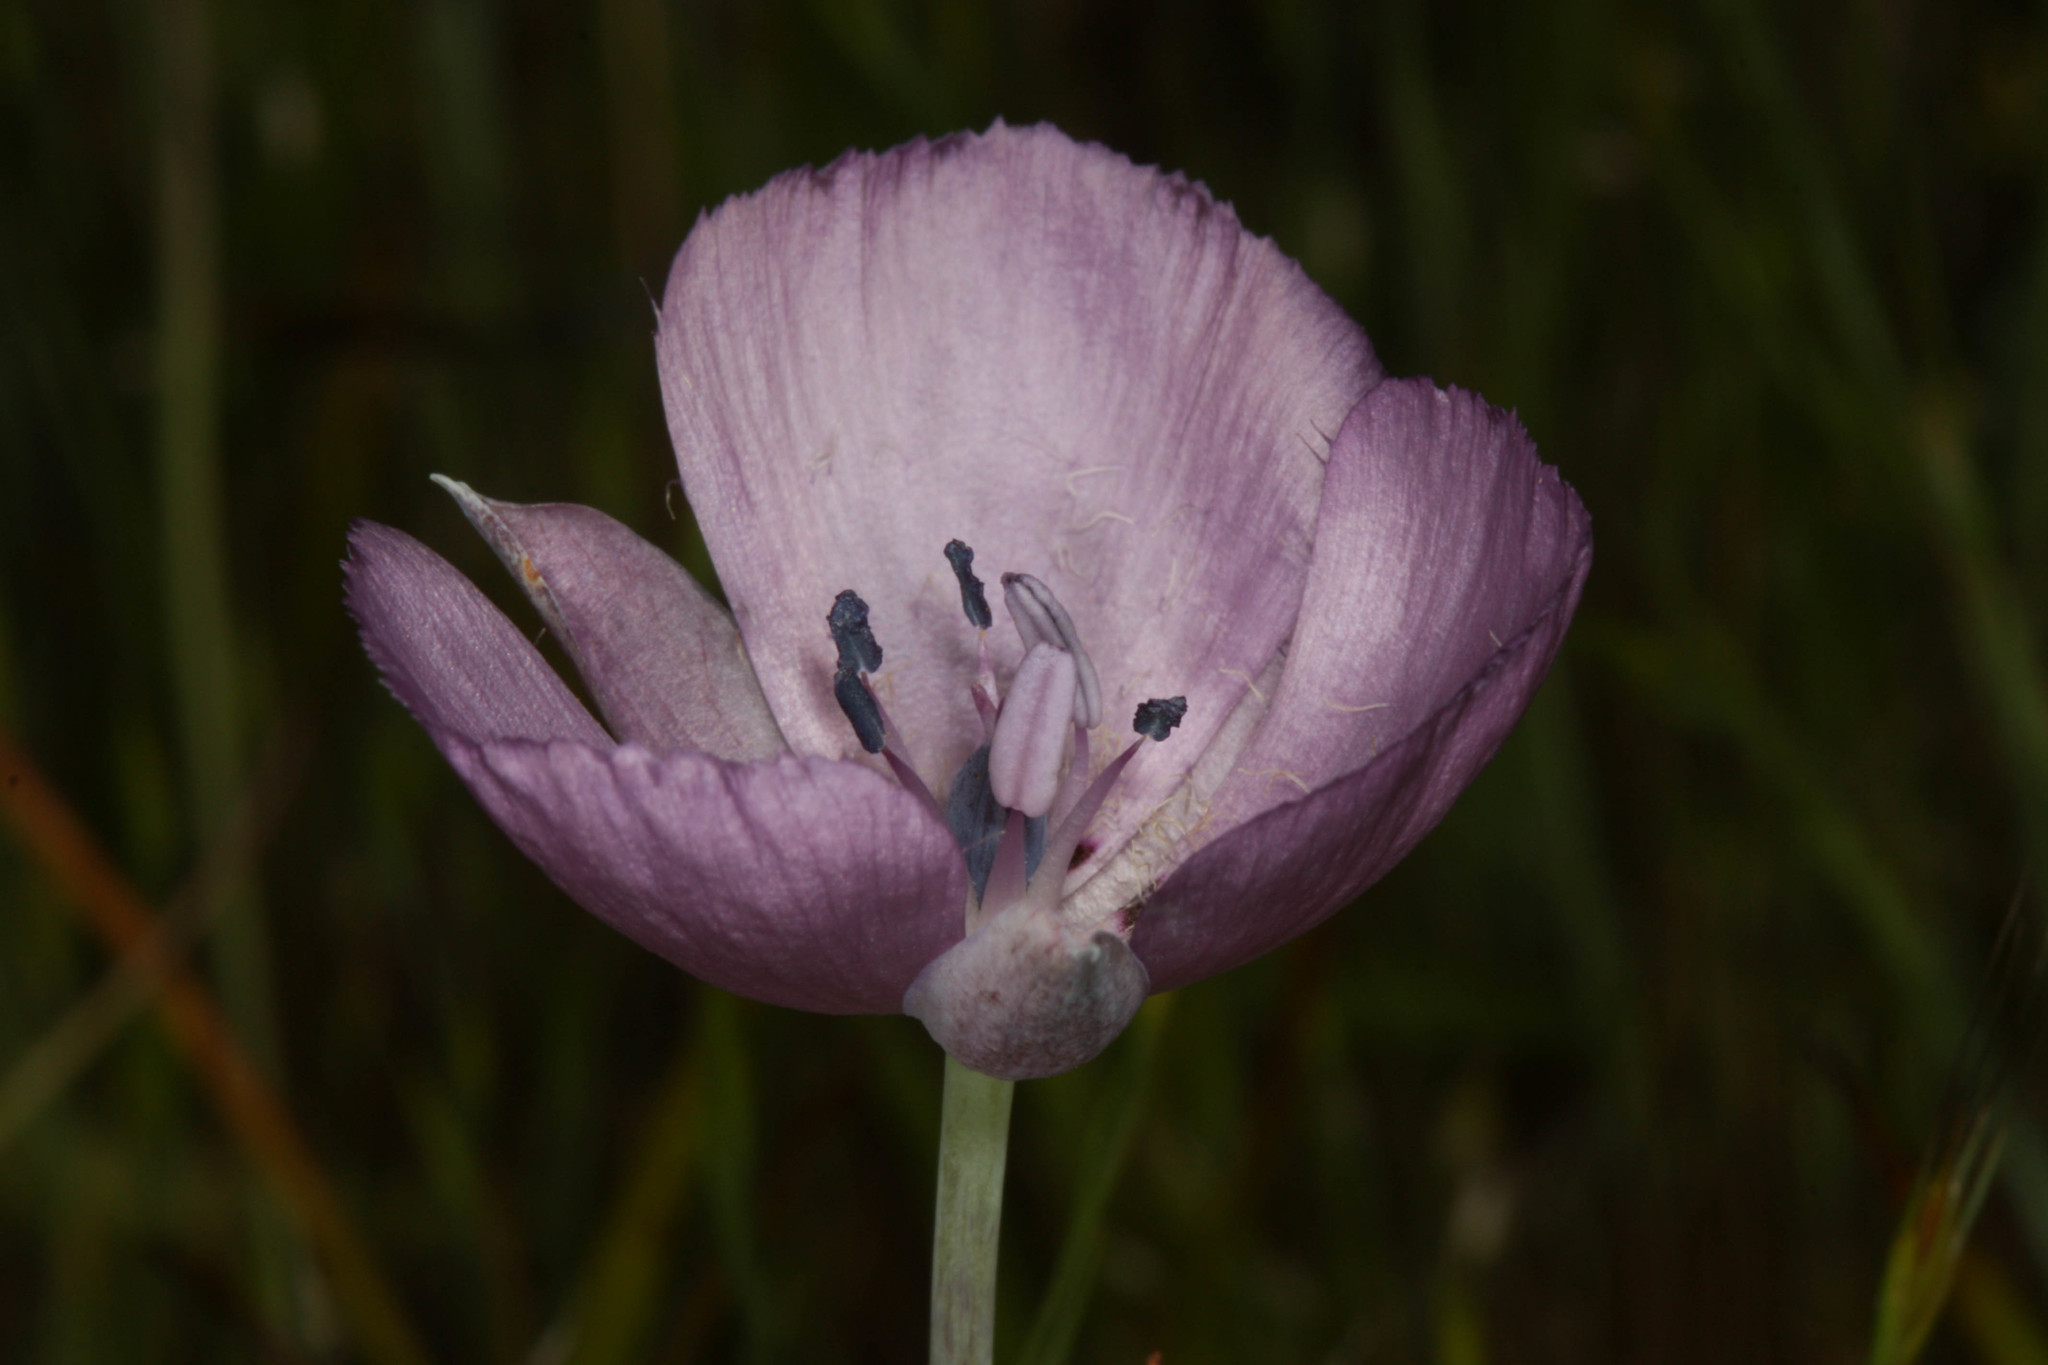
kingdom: Plantae
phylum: Tracheophyta
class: Liliopsida
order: Liliales
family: Liliaceae
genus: Calochortus
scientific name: Calochortus uniflorus
